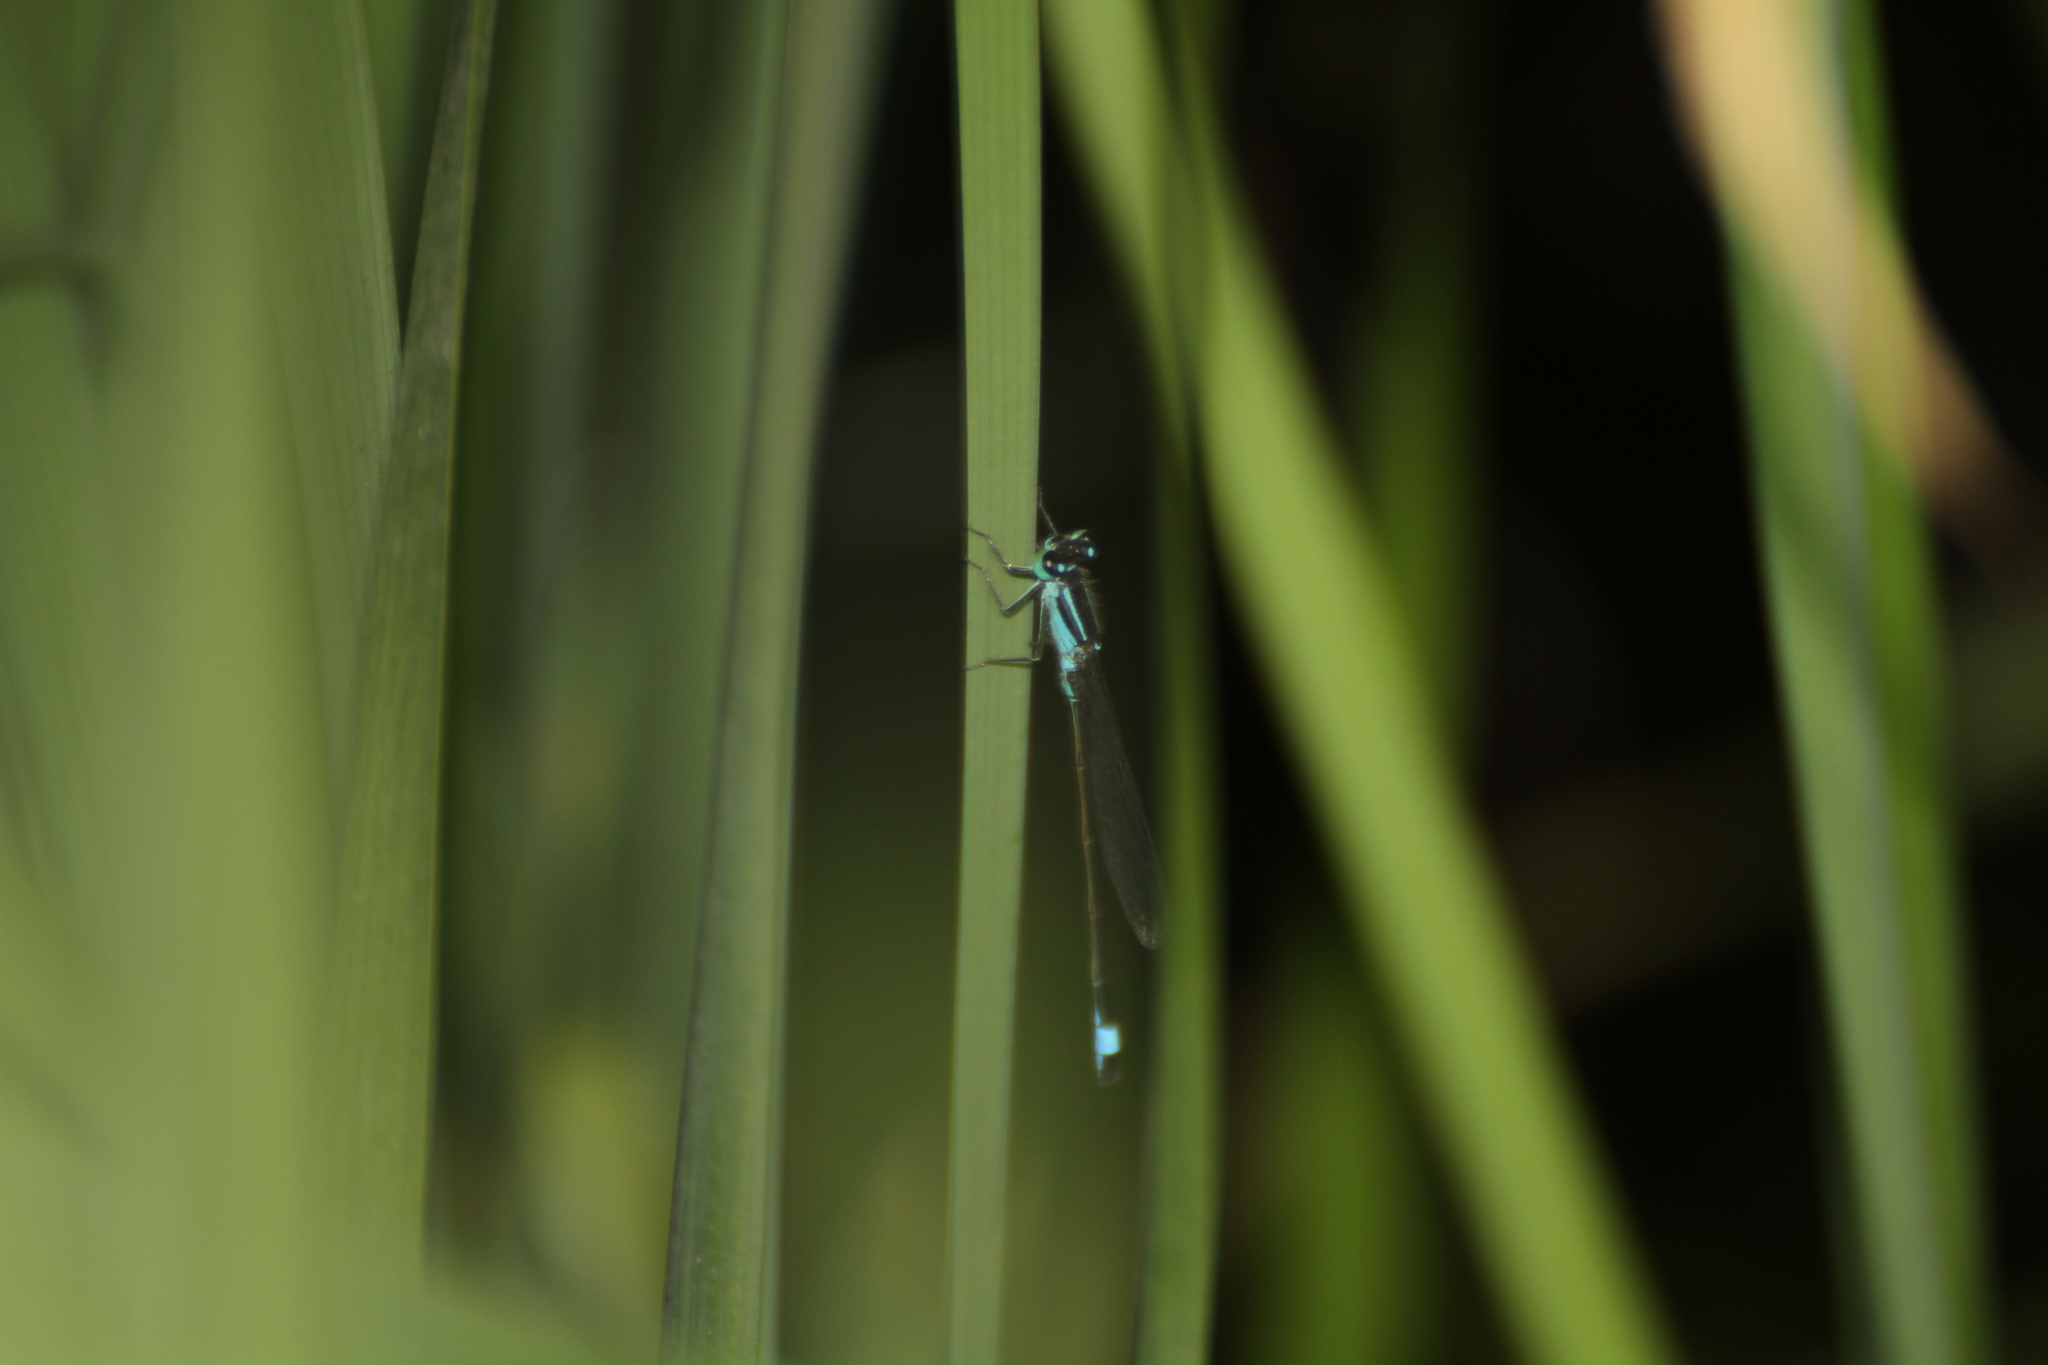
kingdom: Animalia
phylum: Arthropoda
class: Insecta
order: Odonata
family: Coenagrionidae
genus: Ischnura
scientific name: Ischnura elegans
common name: Blue-tailed damselfly
